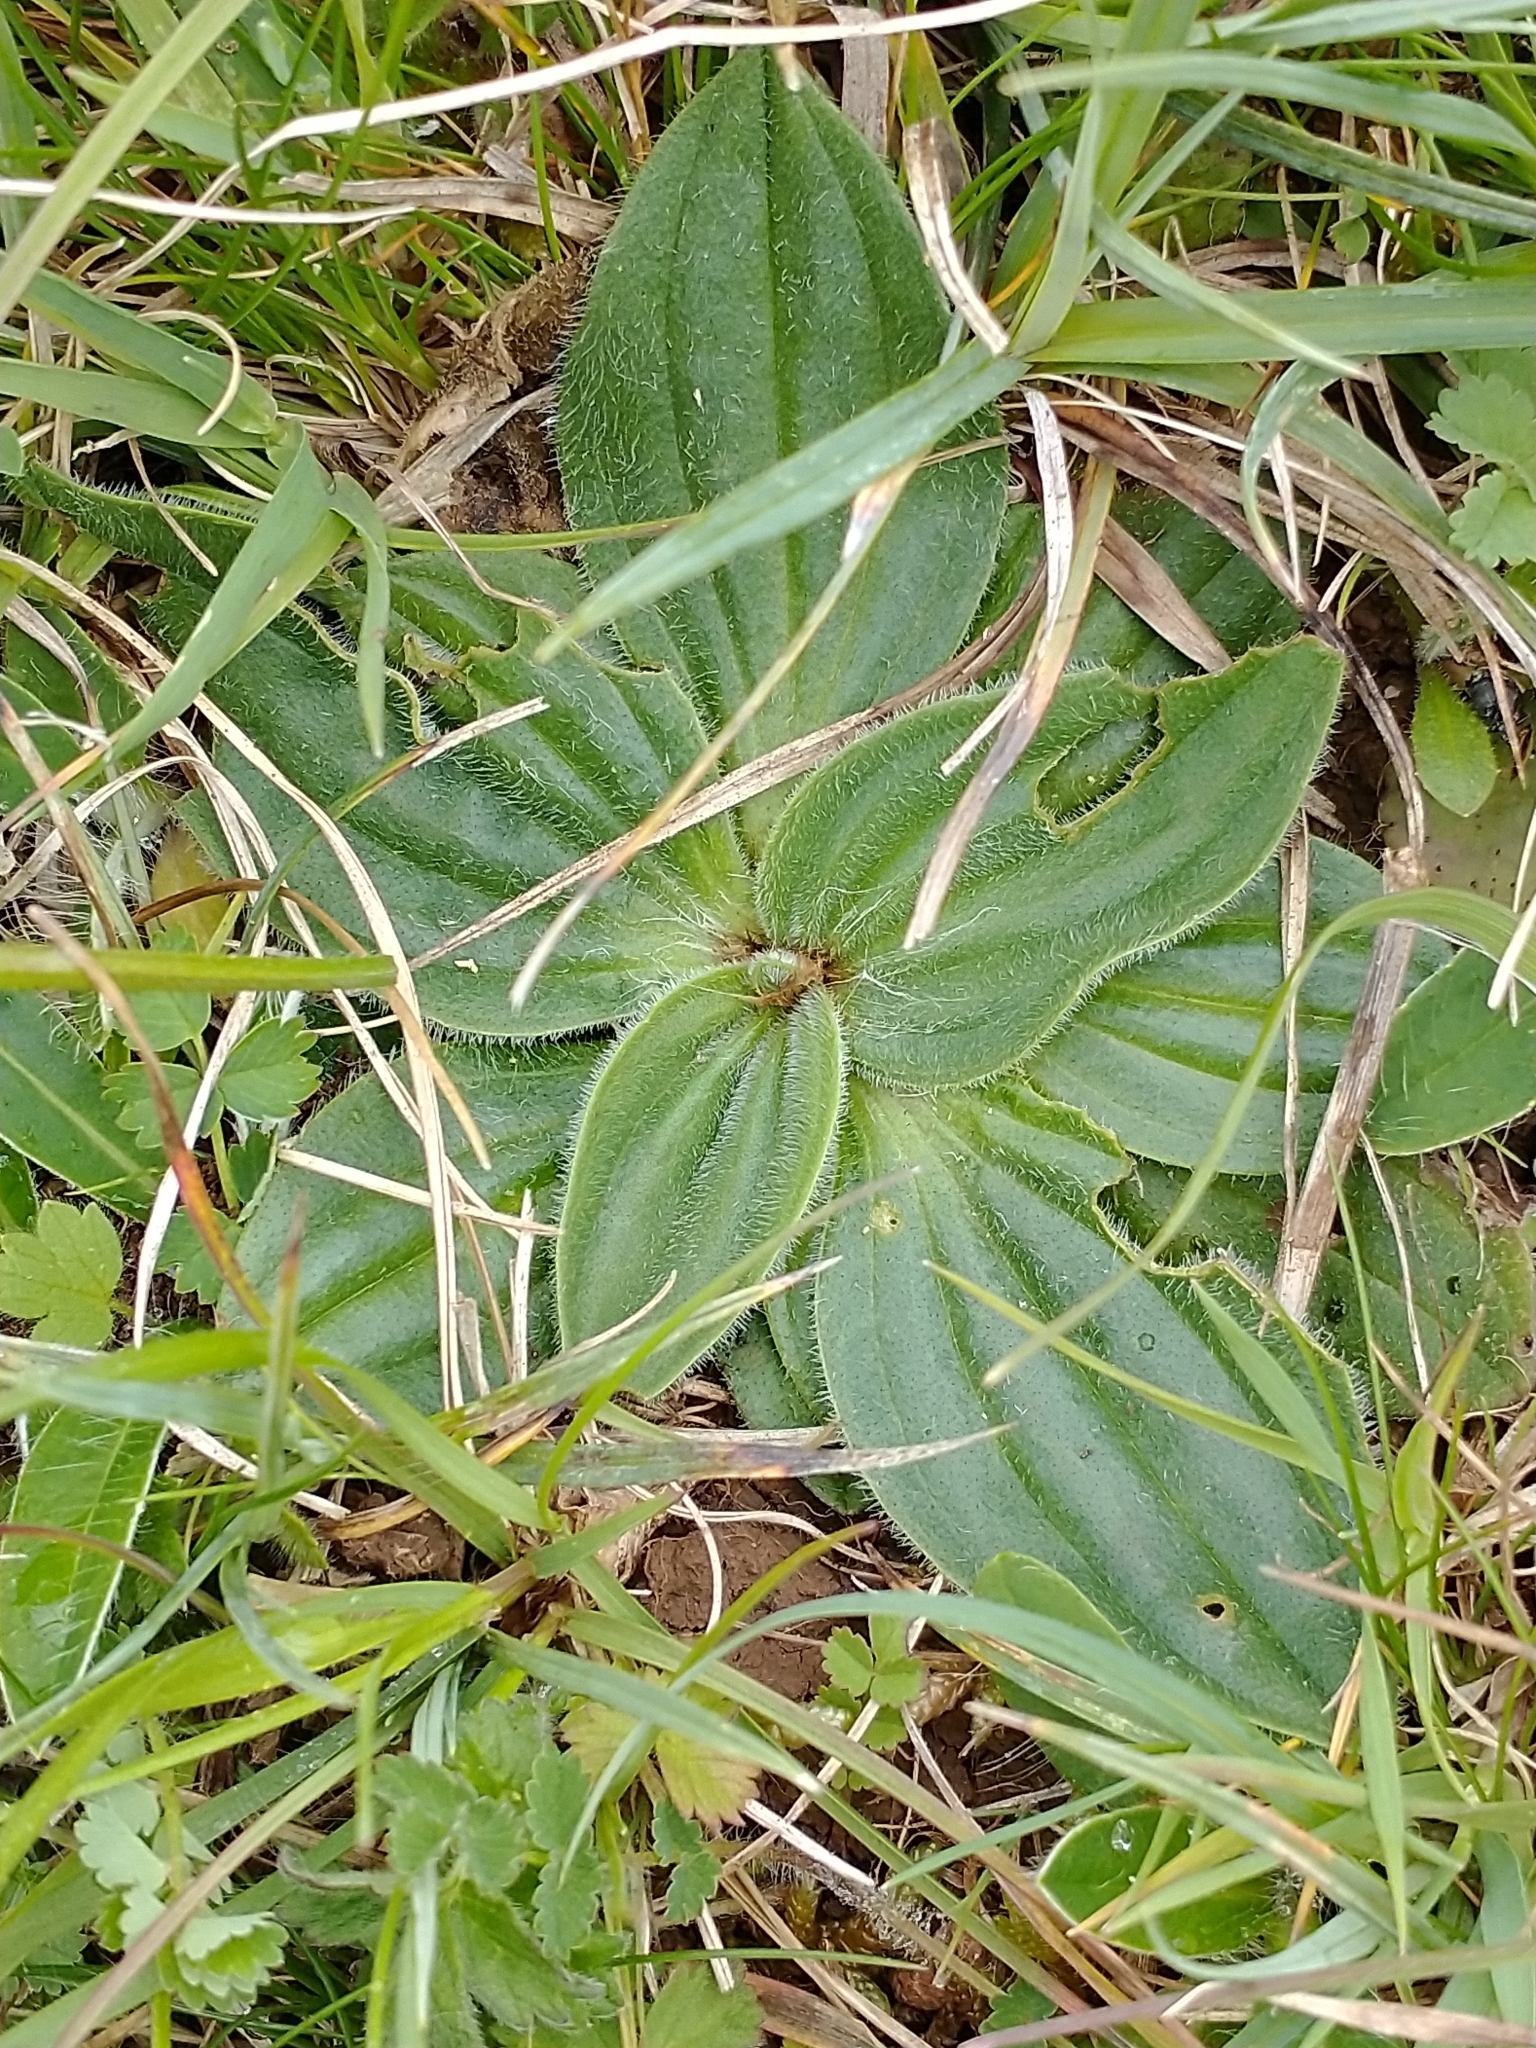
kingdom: Plantae
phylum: Tracheophyta
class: Magnoliopsida
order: Lamiales
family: Plantaginaceae
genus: Plantago
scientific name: Plantago media
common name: Hoary plantain
